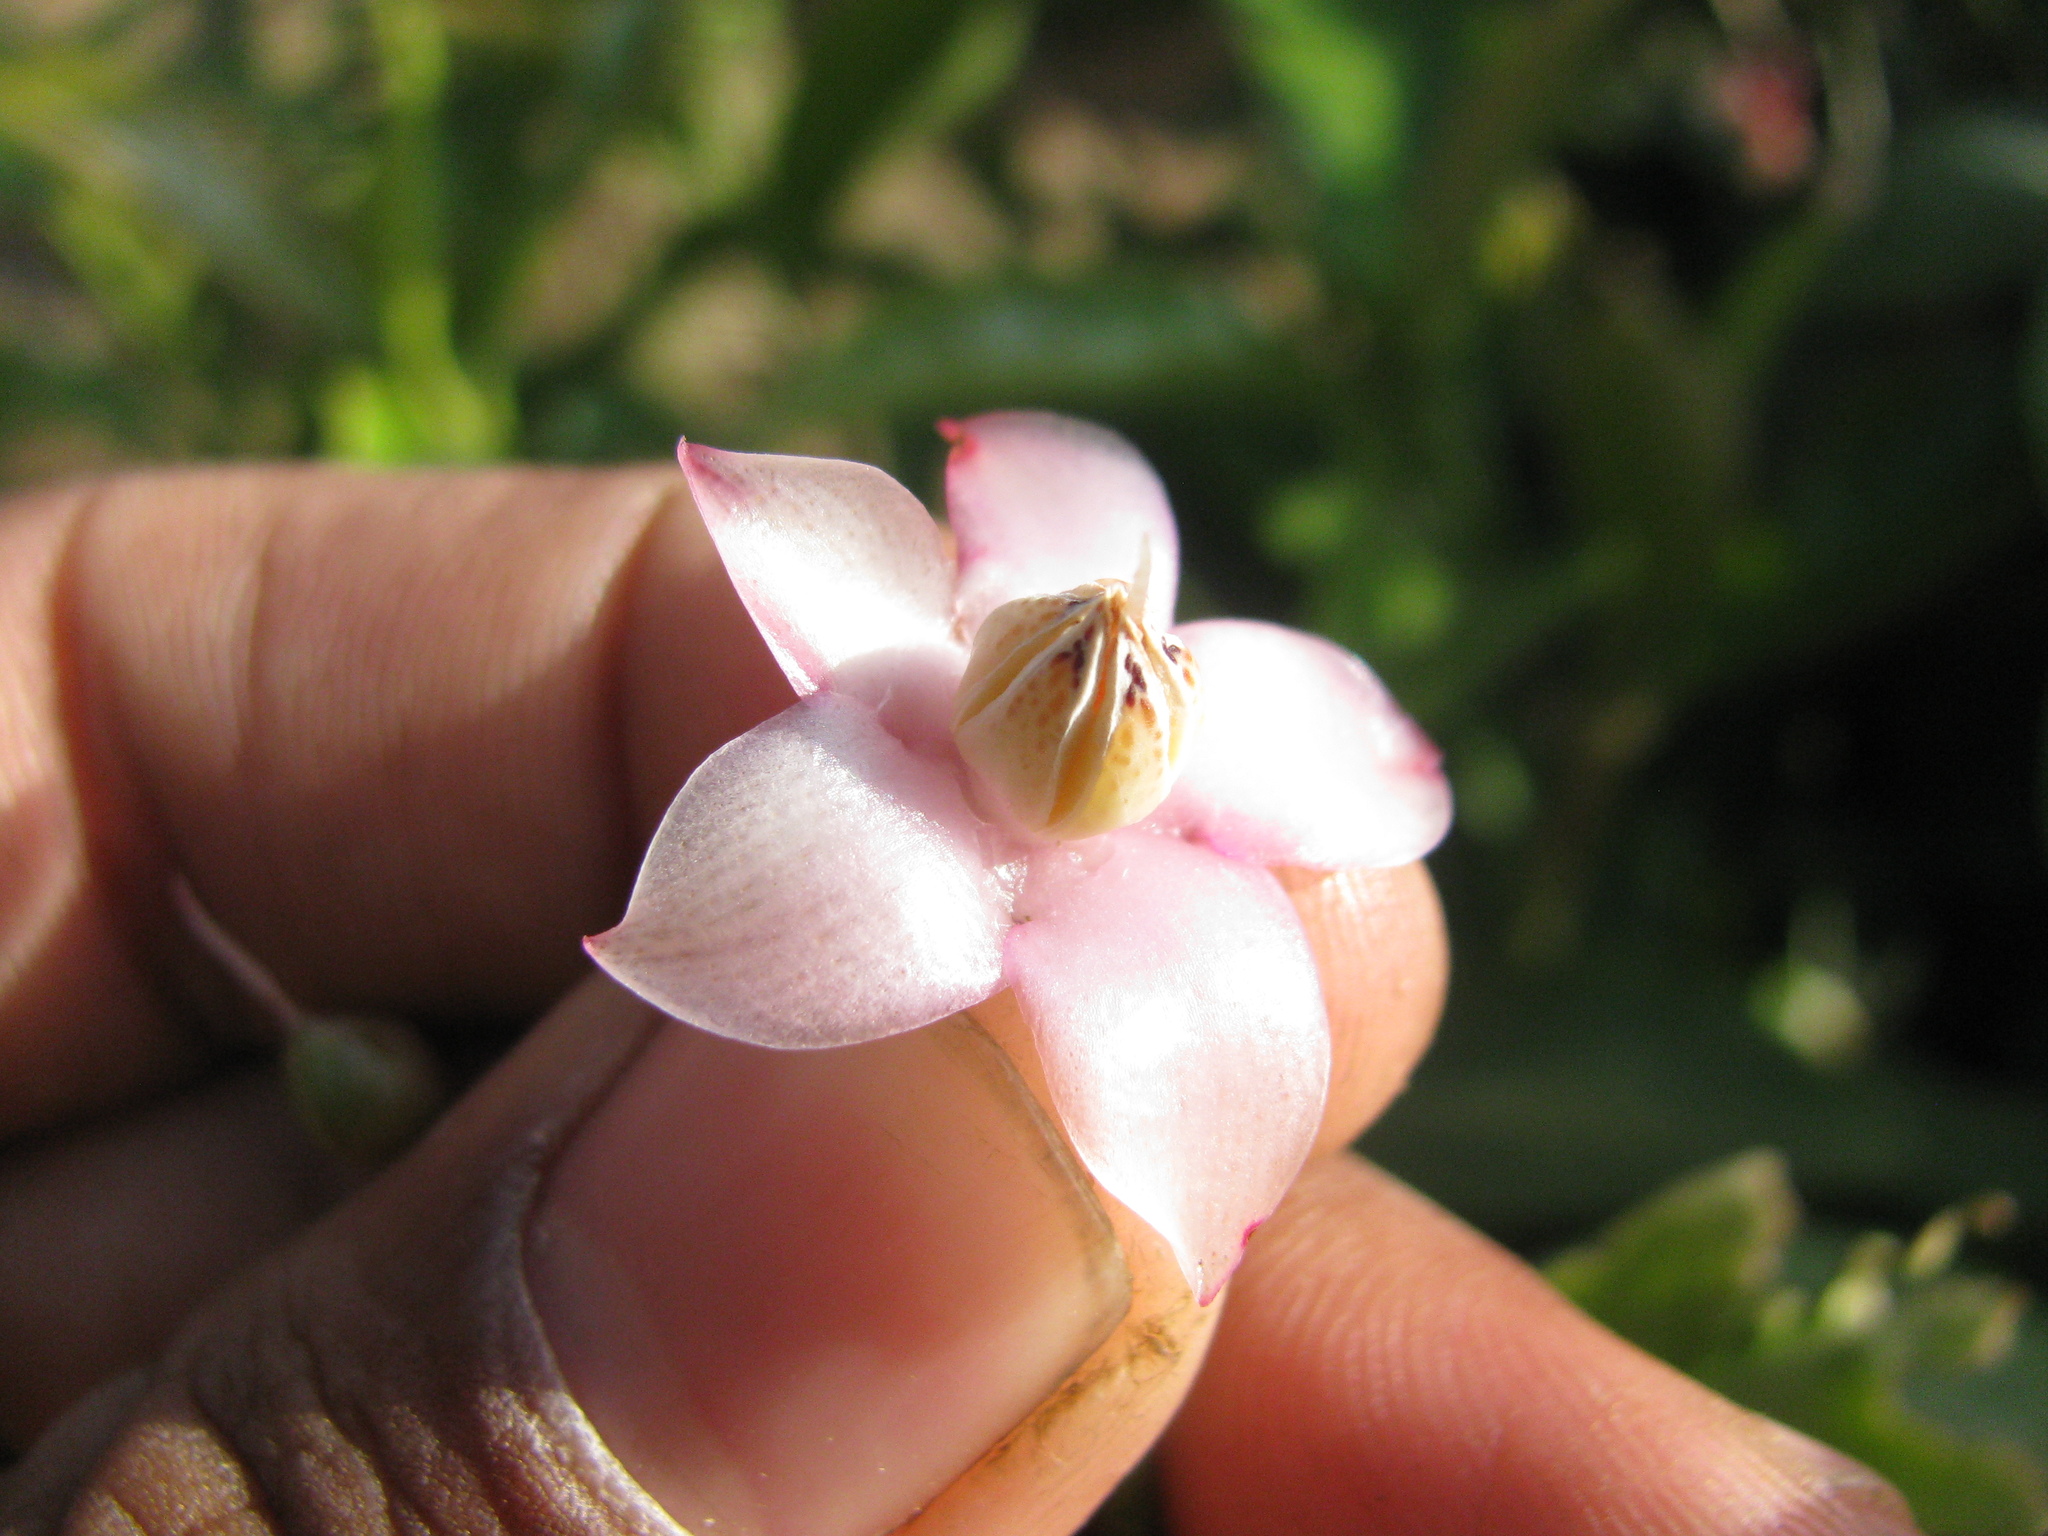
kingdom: Plantae
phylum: Tracheophyta
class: Magnoliopsida
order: Ericales
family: Primulaceae
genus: Ardisia
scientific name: Ardisia humilis
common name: Low shoebutton
